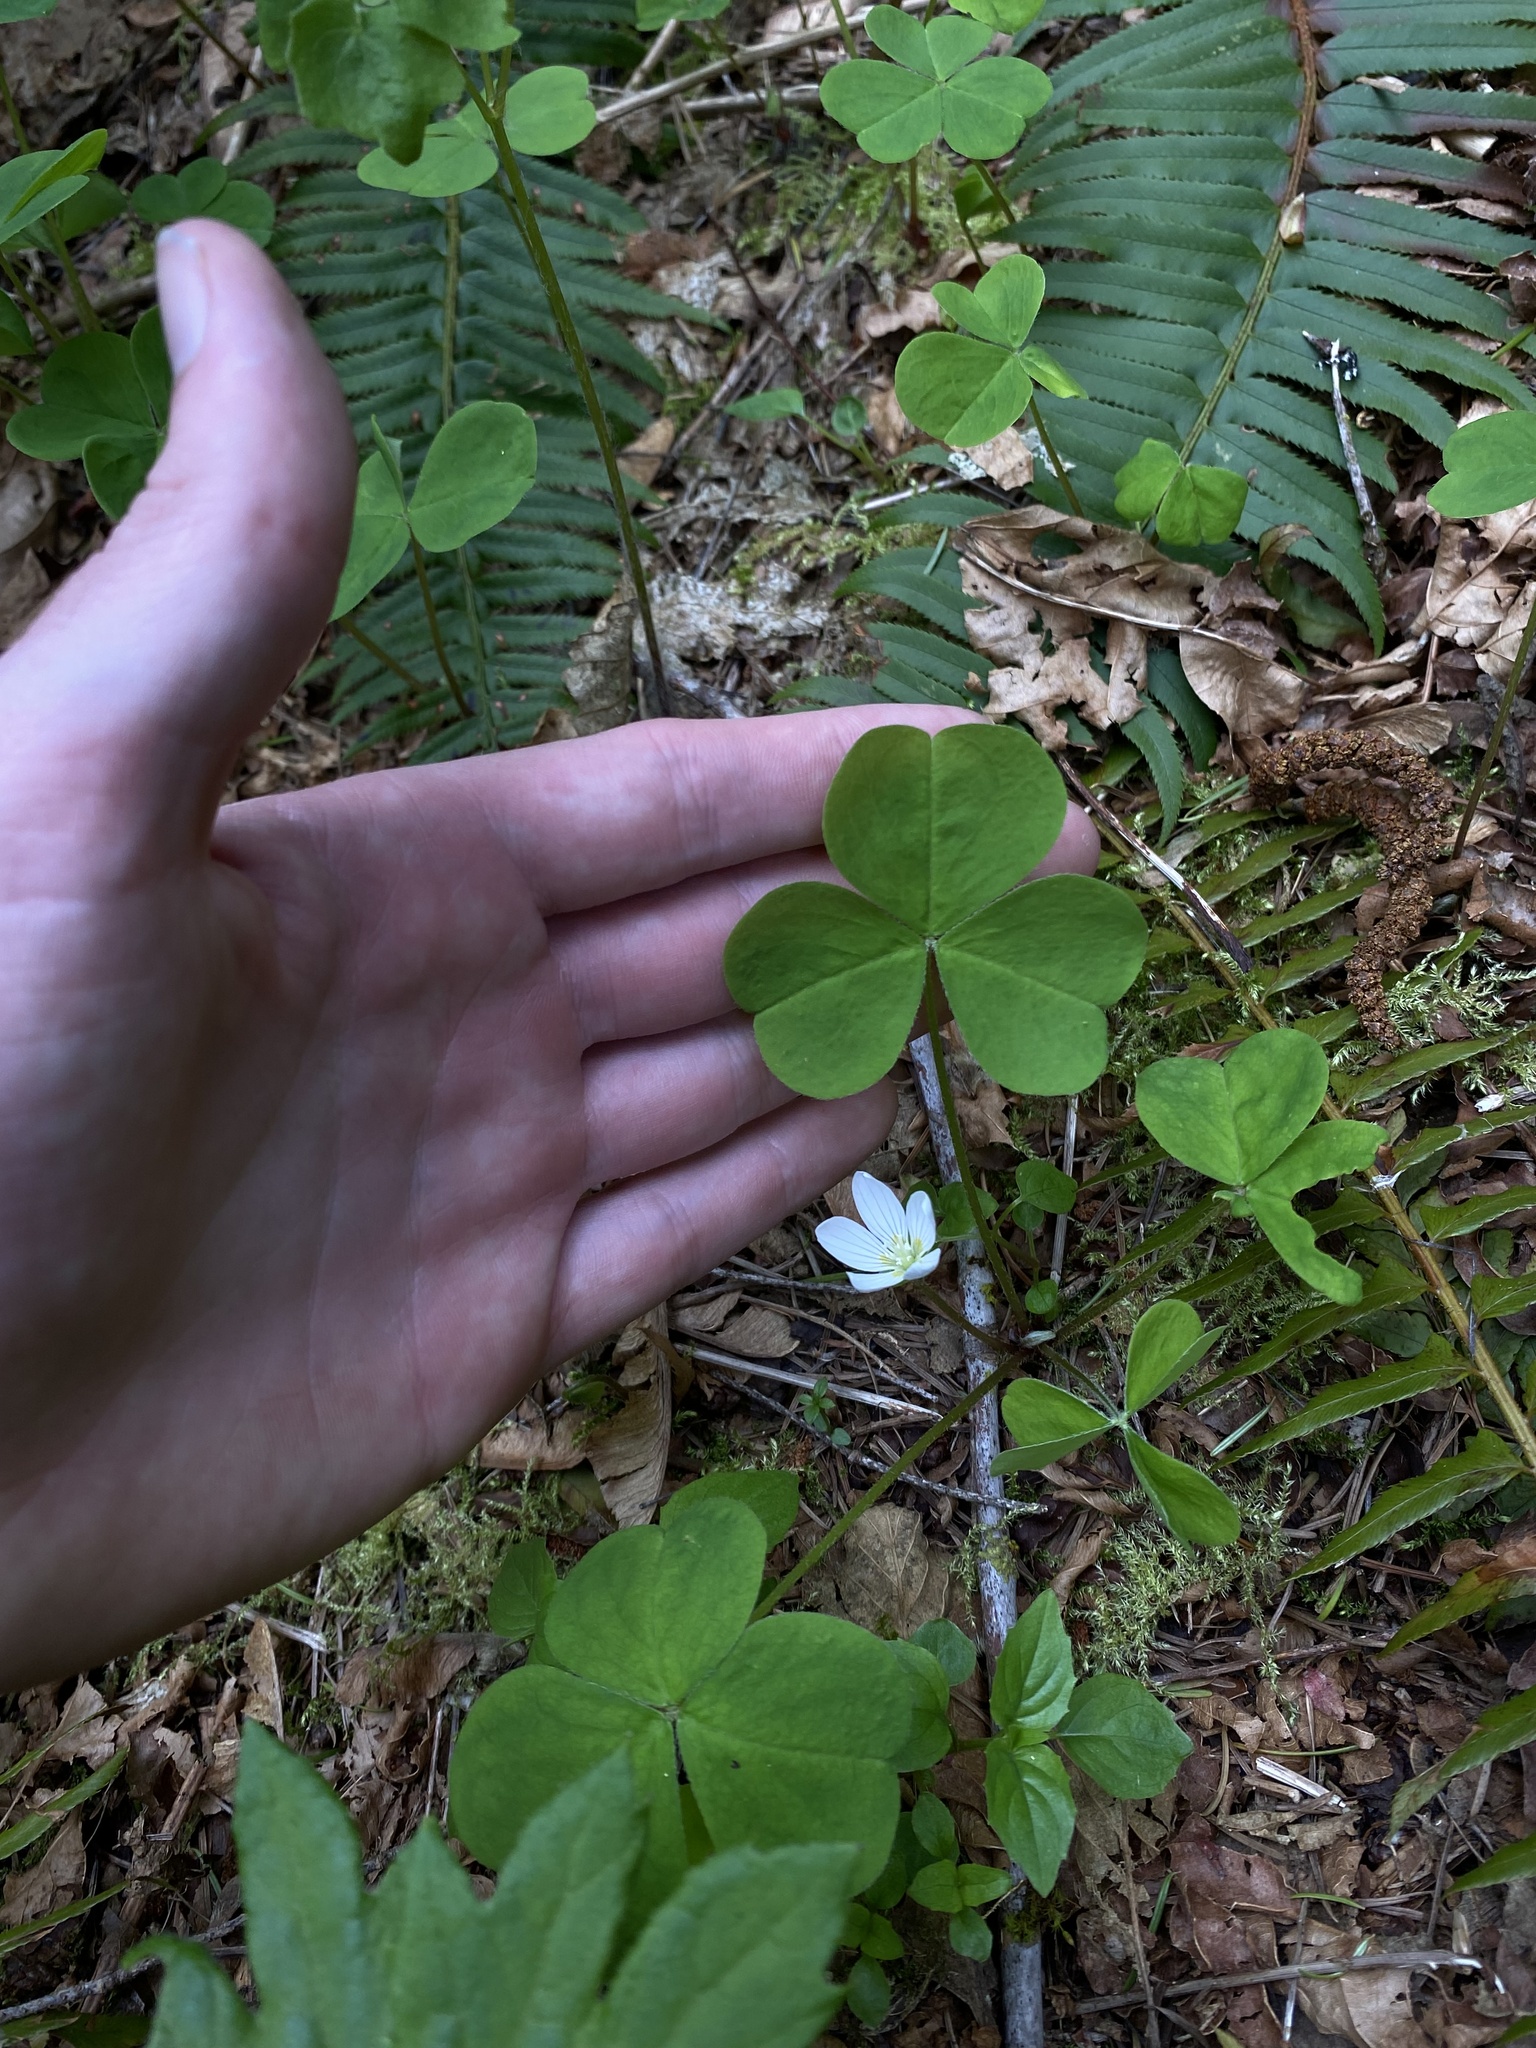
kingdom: Plantae
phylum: Tracheophyta
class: Magnoliopsida
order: Oxalidales
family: Oxalidaceae
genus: Oxalis
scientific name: Oxalis oregana
